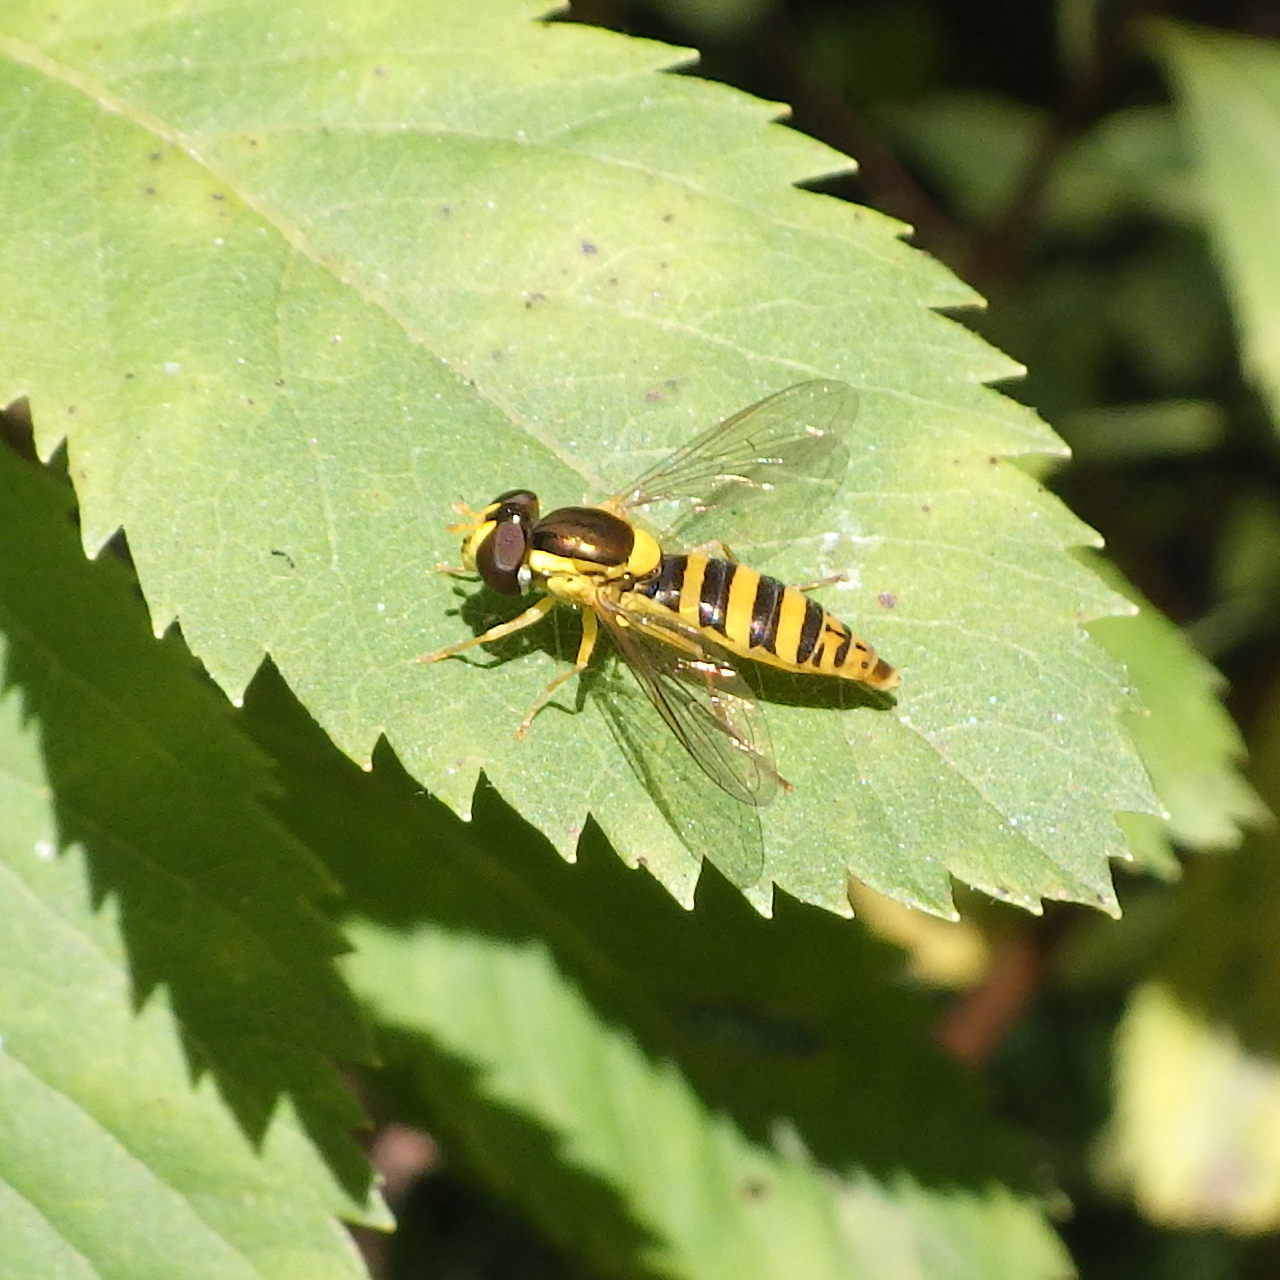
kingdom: Animalia
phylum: Arthropoda
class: Insecta
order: Diptera
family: Syrphidae
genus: Sphaerophoria
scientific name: Sphaerophoria
